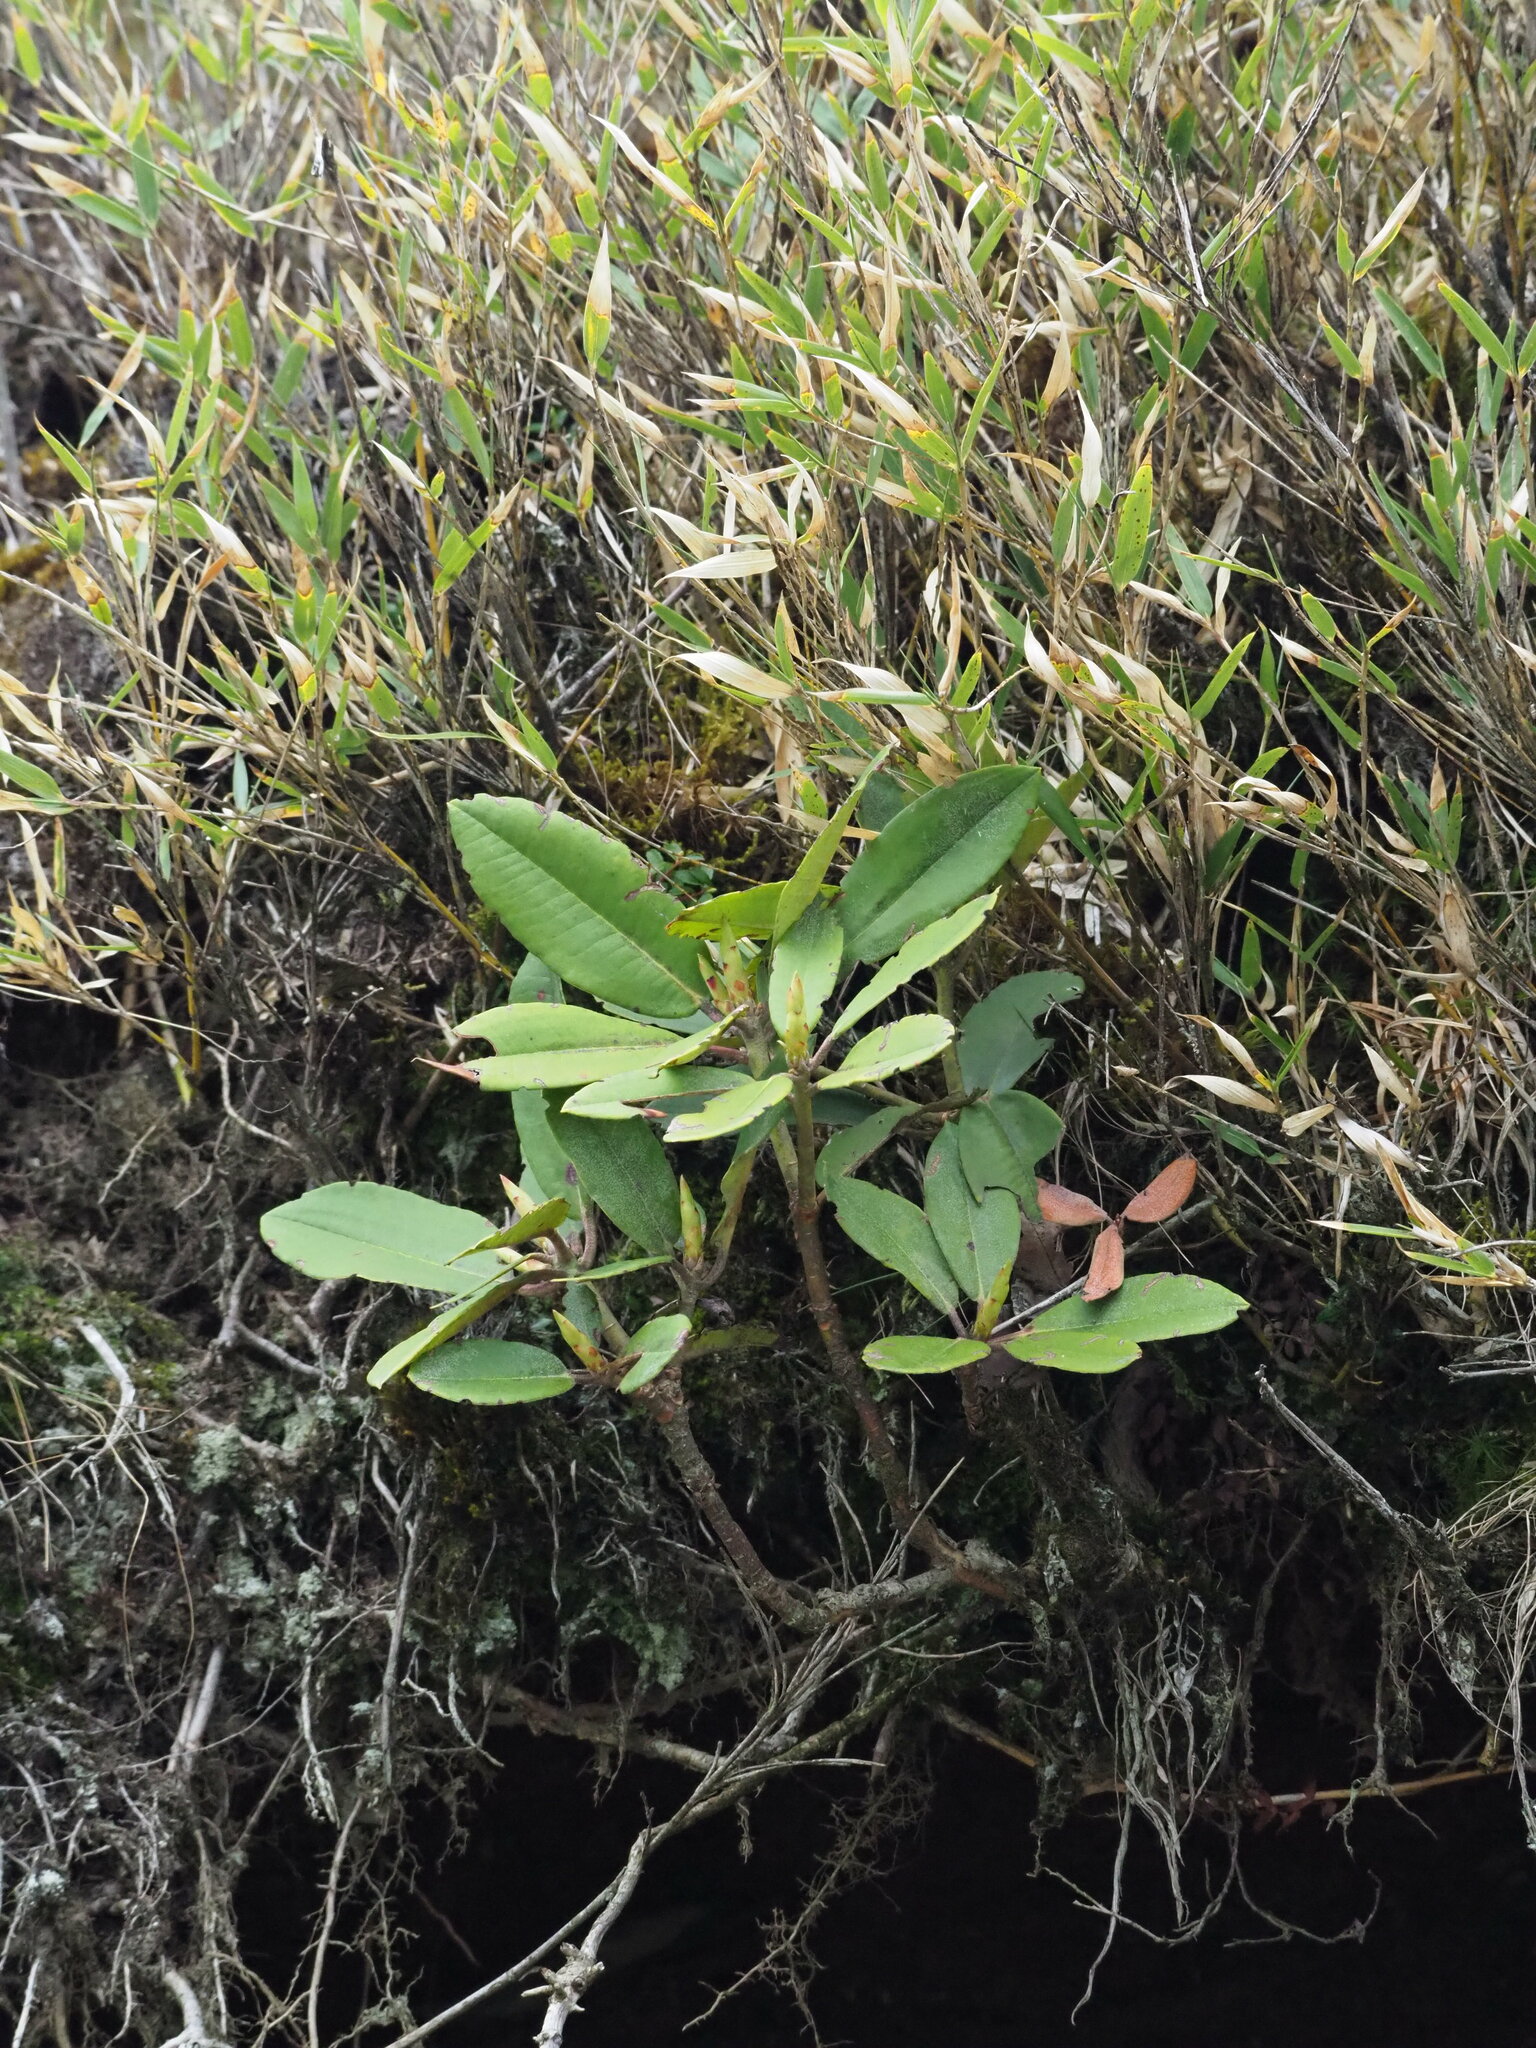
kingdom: Plantae
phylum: Tracheophyta
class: Magnoliopsida
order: Ericales
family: Ericaceae
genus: Rhododendron
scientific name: Rhododendron pseudochrysanthum
